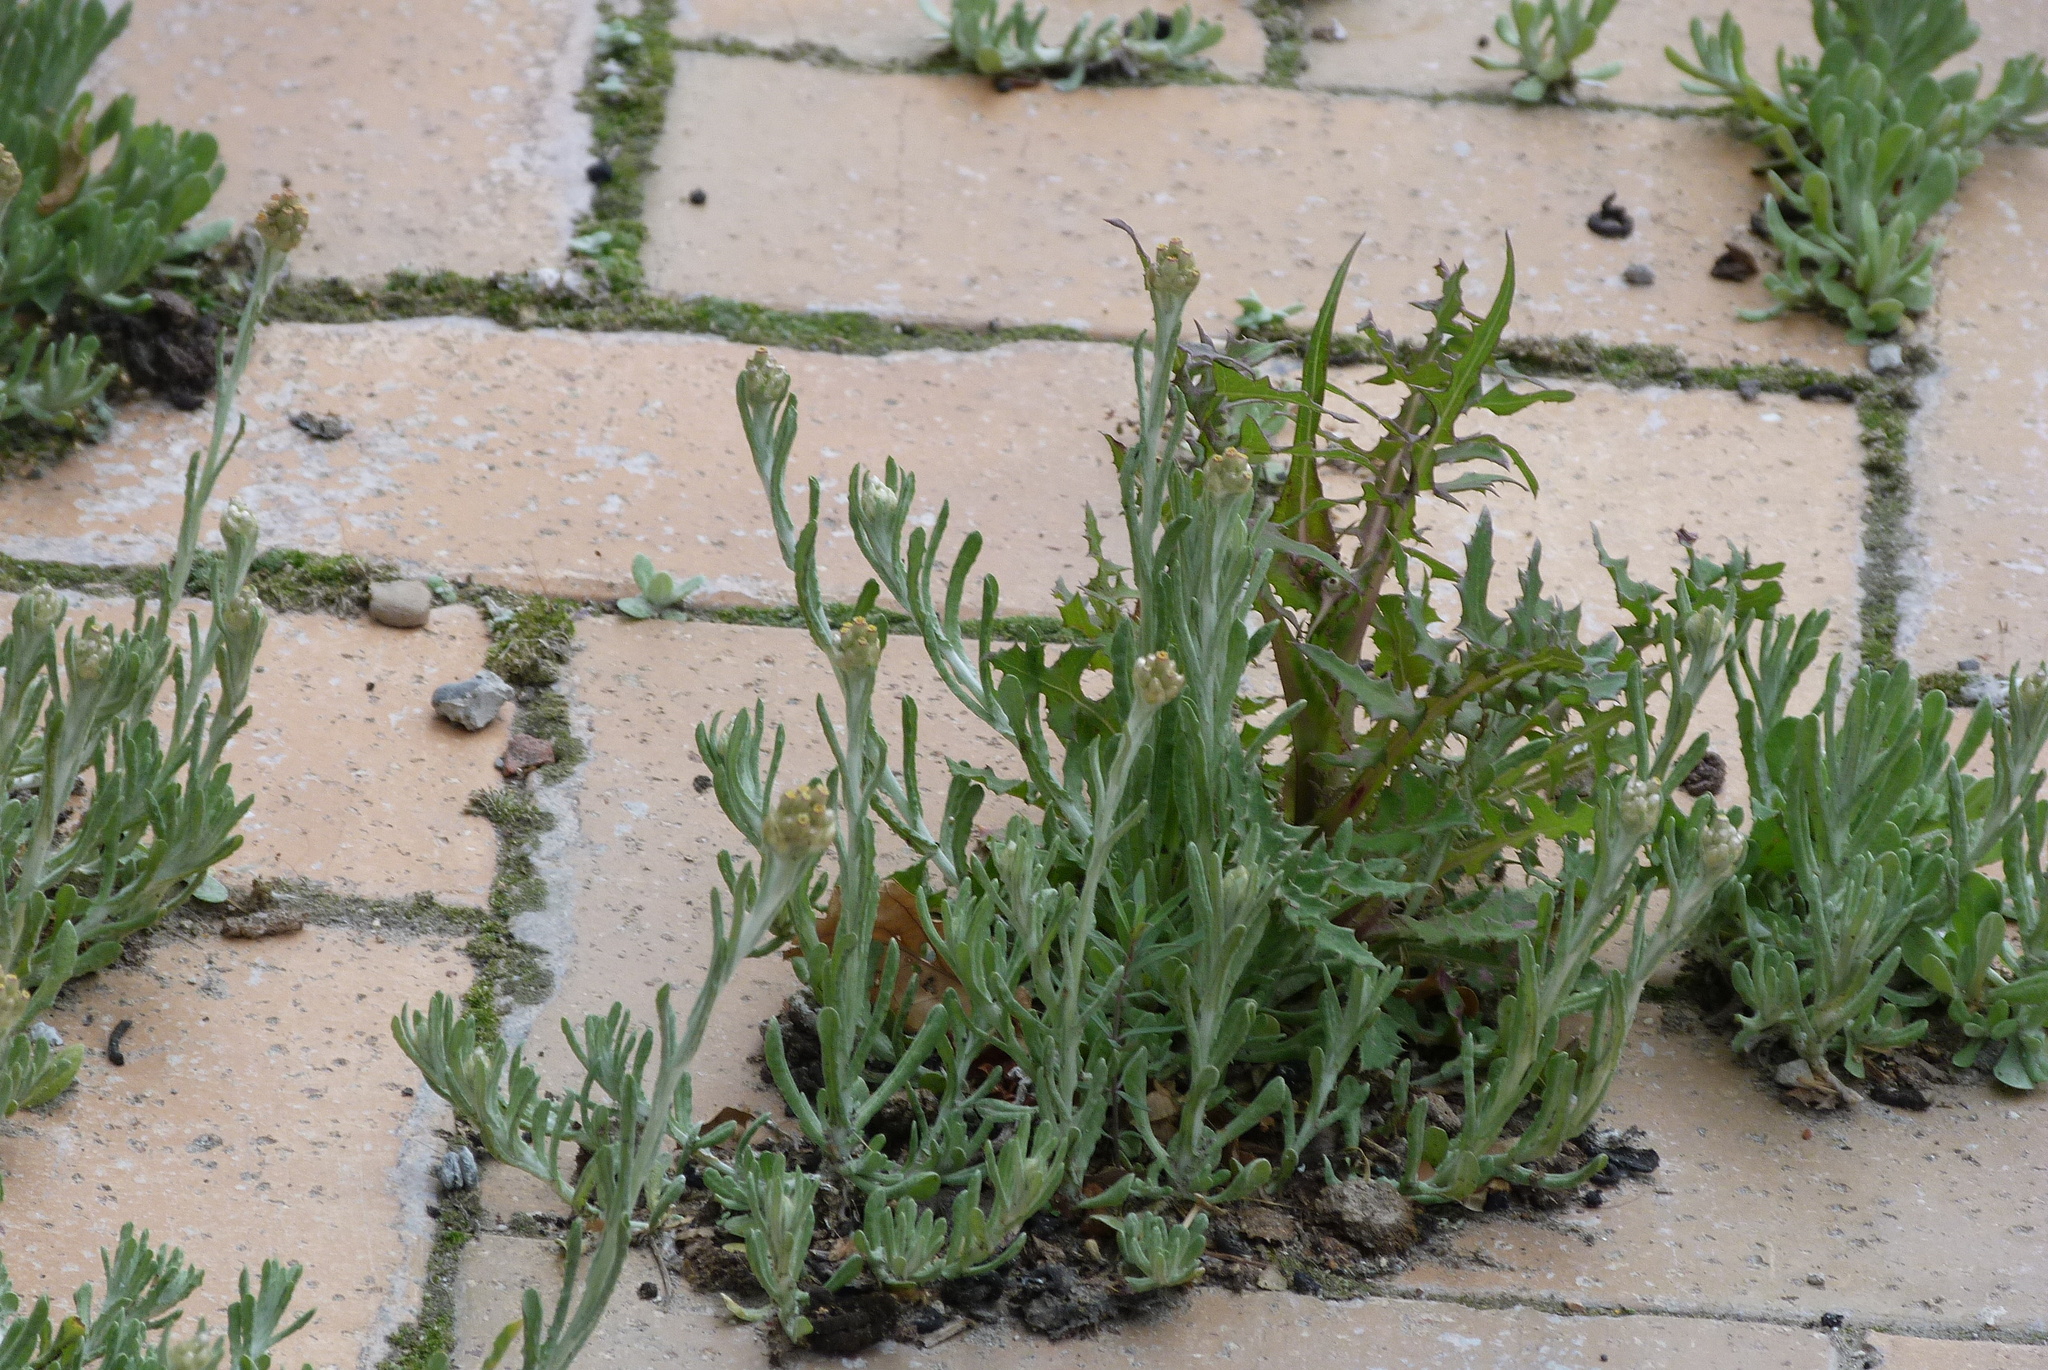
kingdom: Plantae
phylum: Tracheophyta
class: Magnoliopsida
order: Asterales
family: Asteraceae
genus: Helichrysum
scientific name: Helichrysum luteoalbum
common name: Daisy
